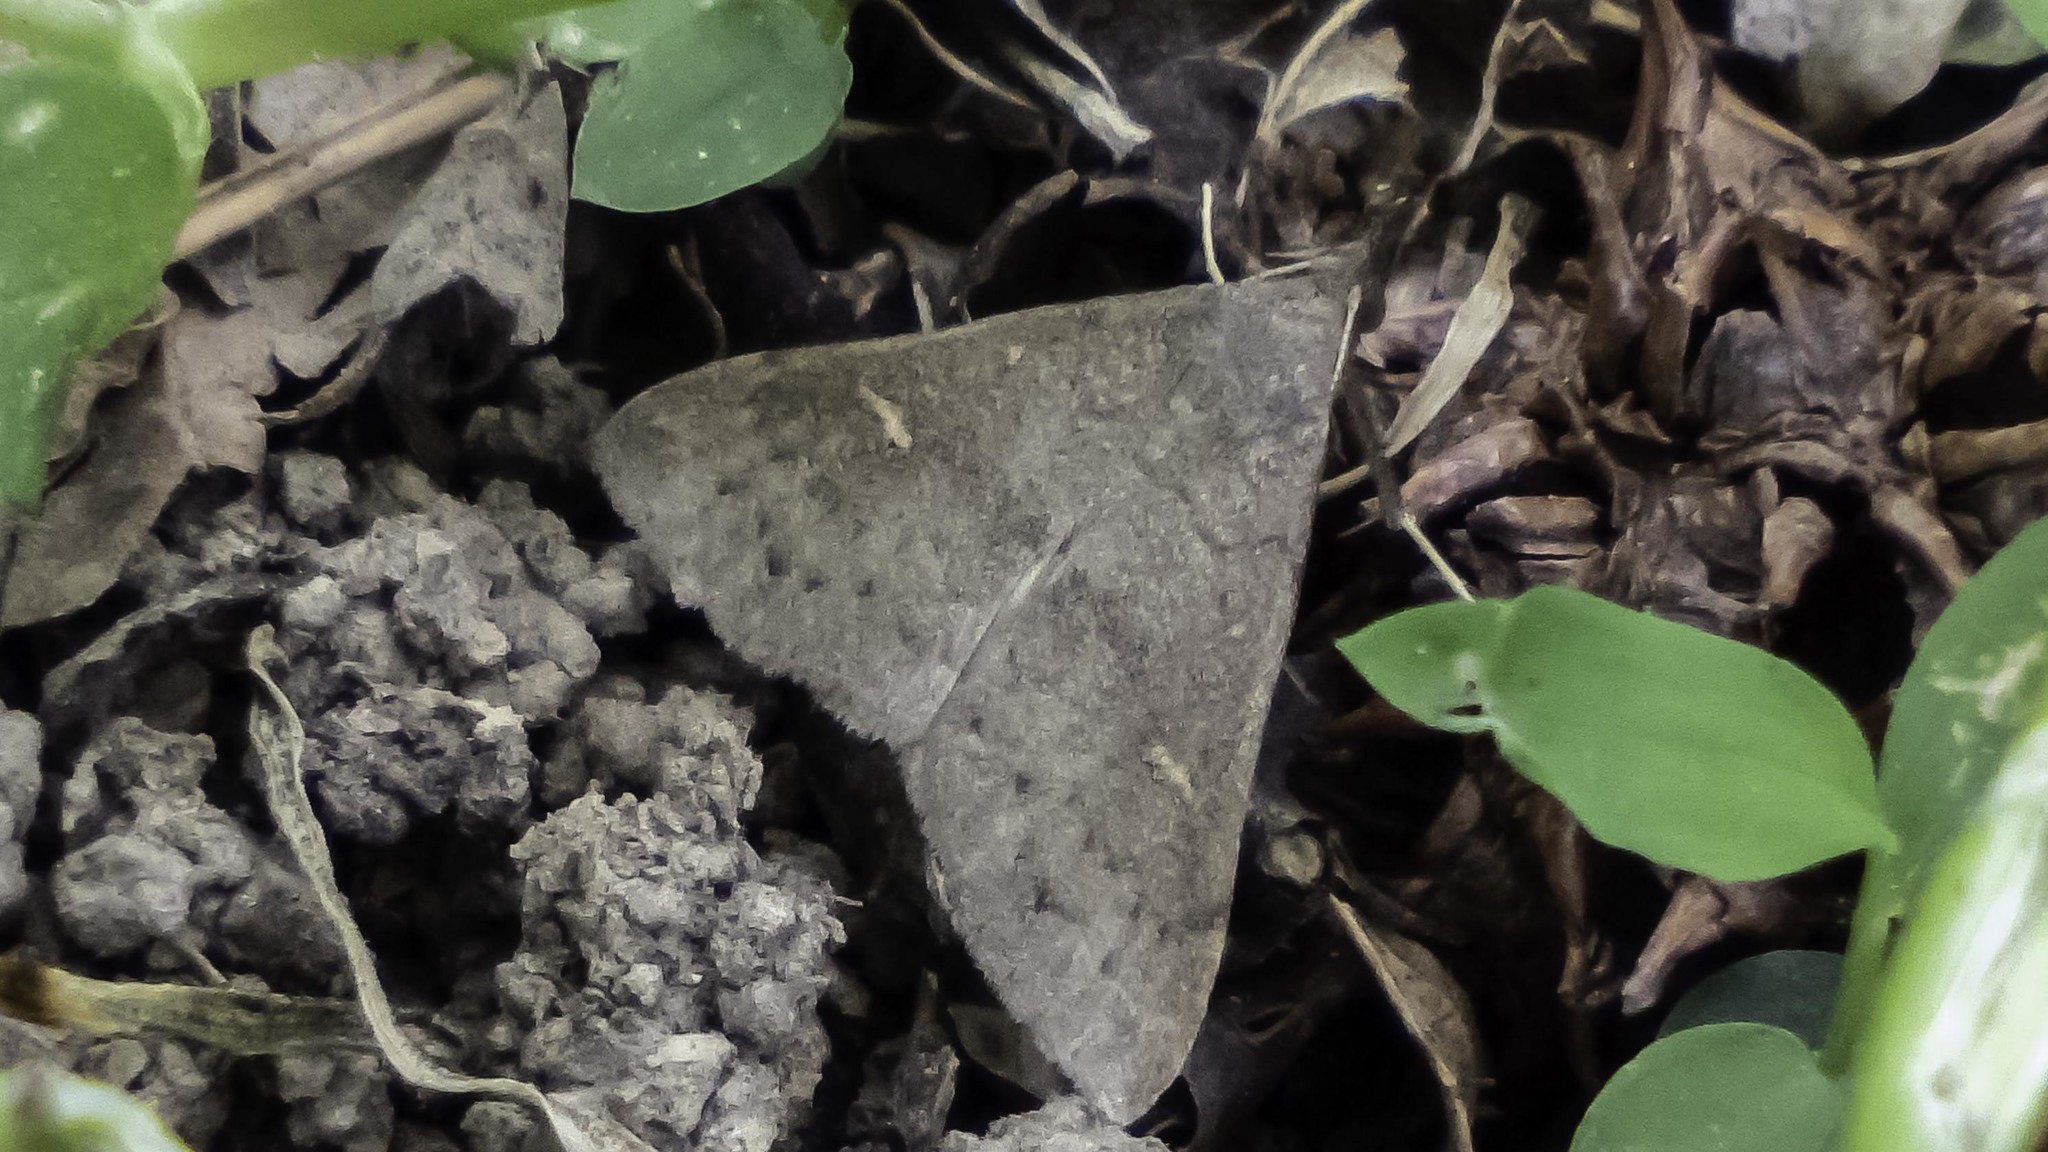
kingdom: Animalia
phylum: Arthropoda
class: Insecta
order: Lepidoptera
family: Erebidae
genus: Renia
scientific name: Renia adspergillus
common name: Speckled renia moth
